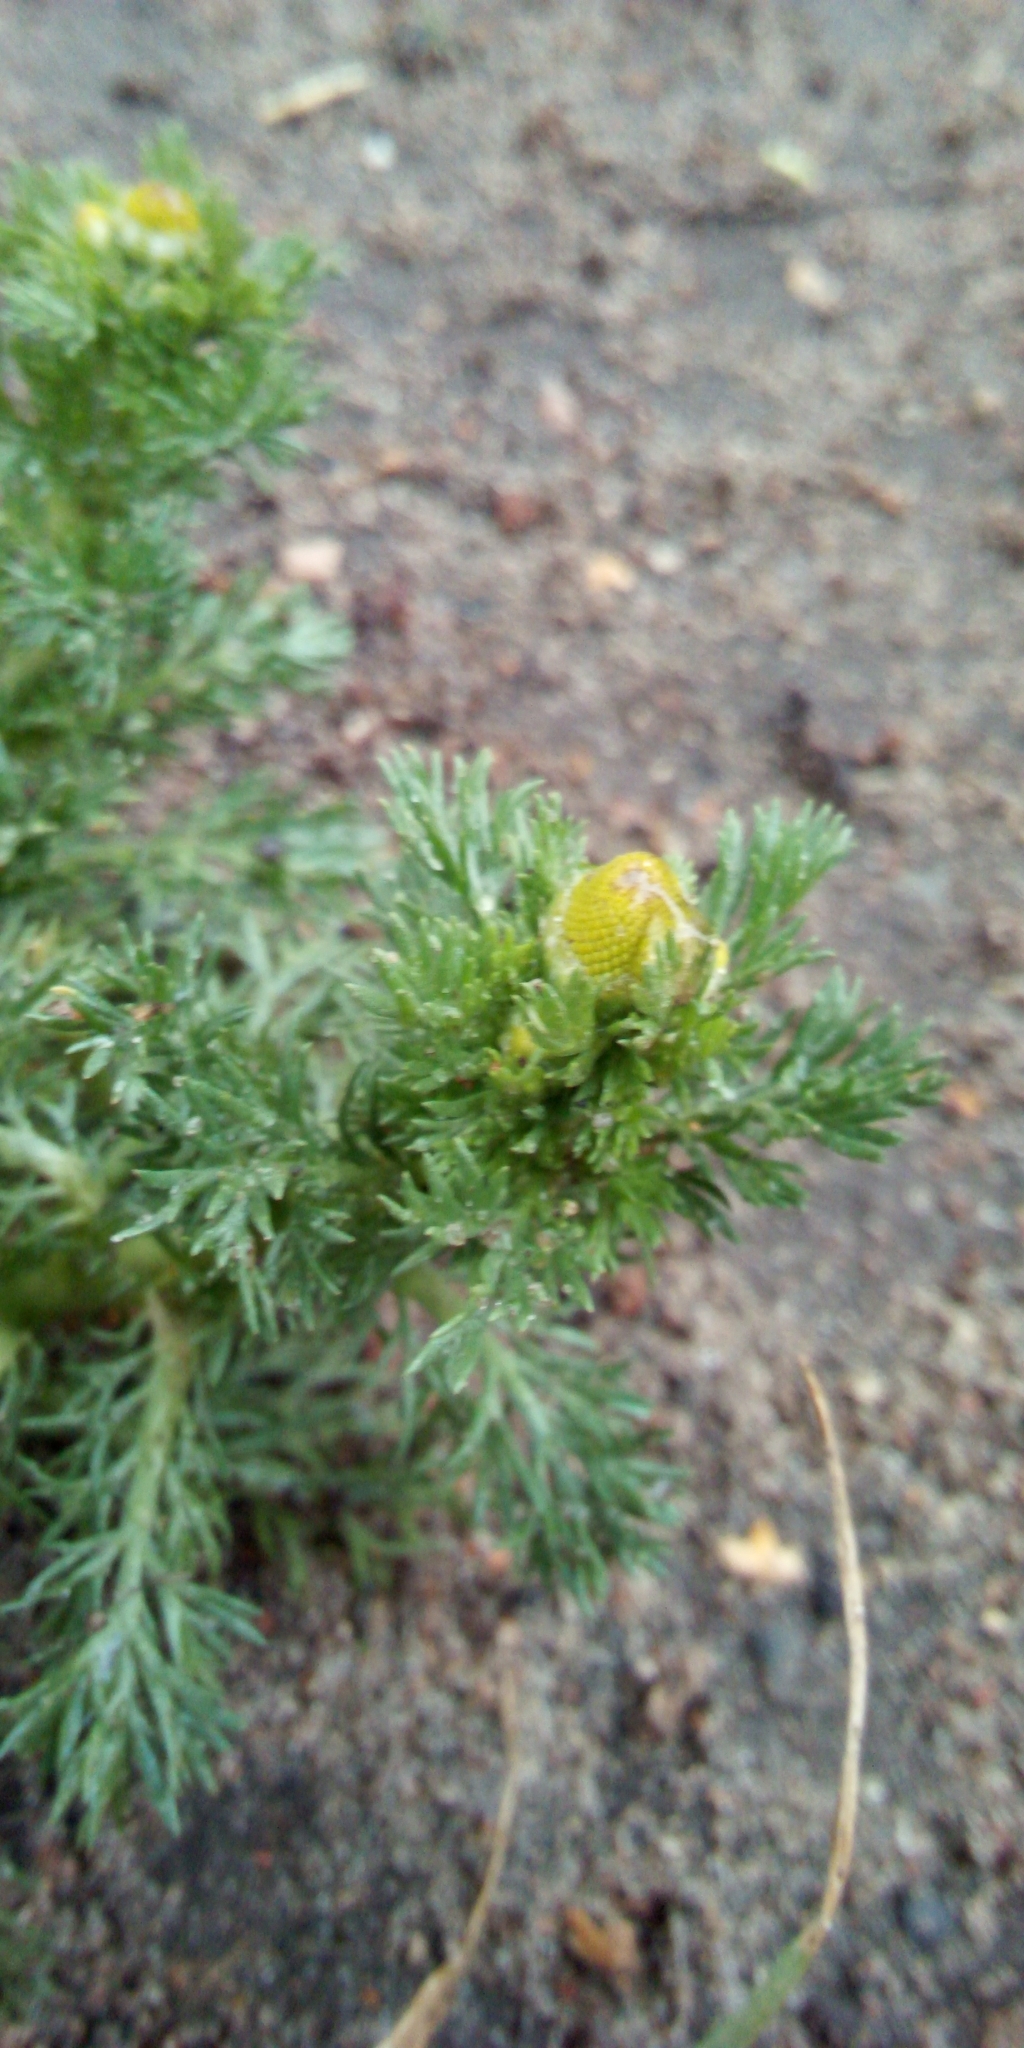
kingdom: Plantae
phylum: Tracheophyta
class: Magnoliopsida
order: Asterales
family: Asteraceae
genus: Matricaria
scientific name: Matricaria discoidea
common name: Disc mayweed
